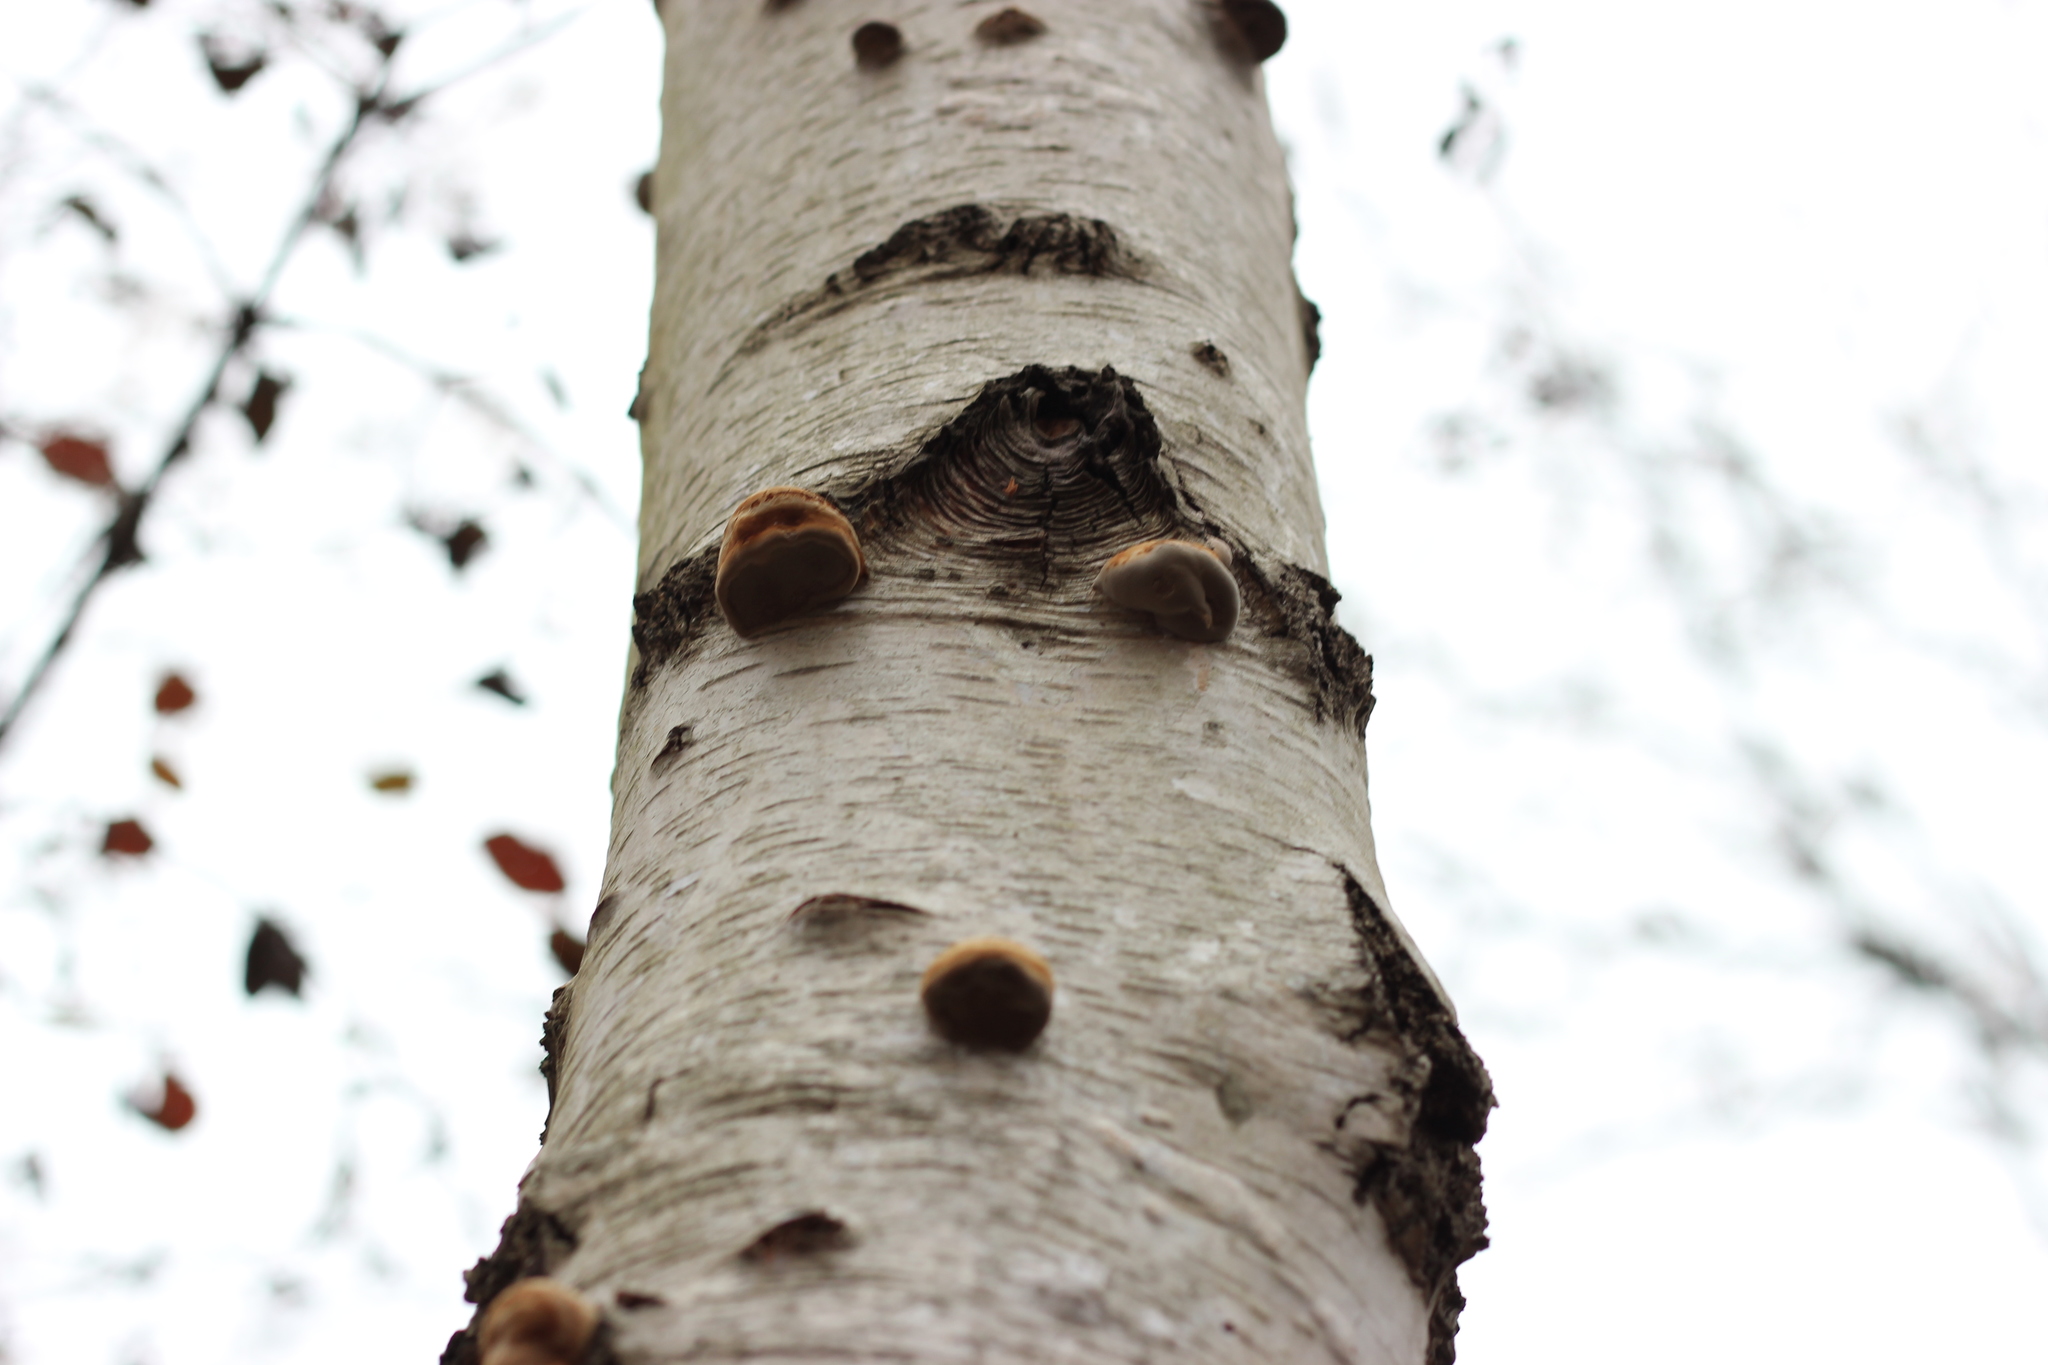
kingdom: Fungi
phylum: Basidiomycota
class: Agaricomycetes
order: Polyporales
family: Polyporaceae
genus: Fomes
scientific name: Fomes fomentarius
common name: Hoof fungus
